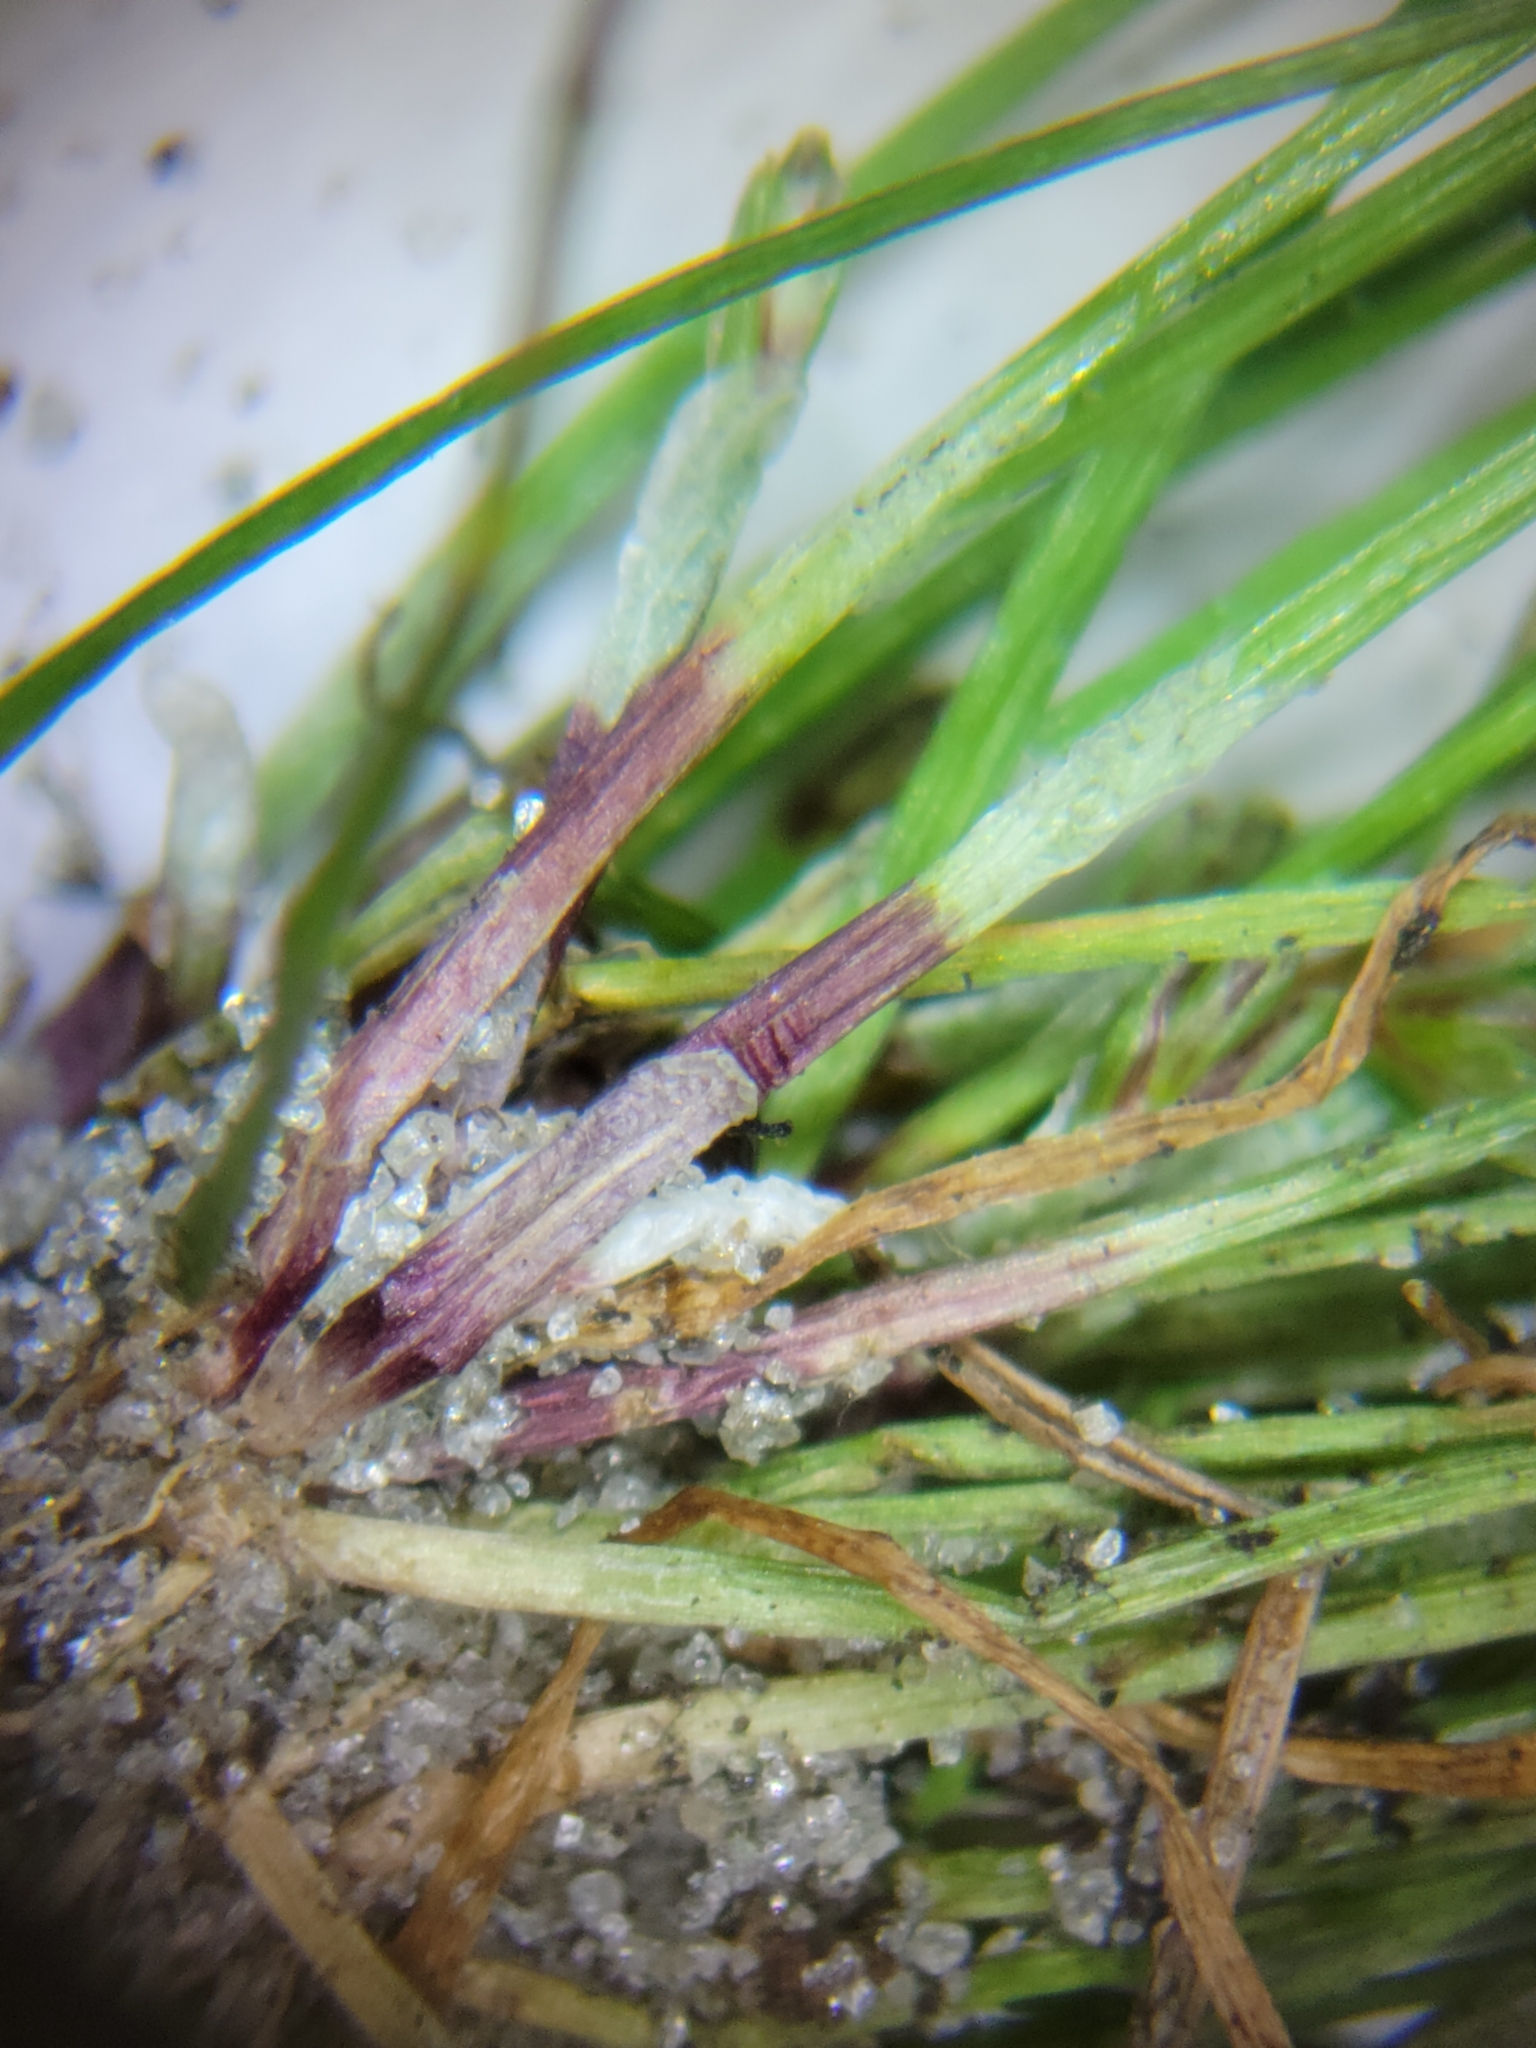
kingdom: Plantae
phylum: Tracheophyta
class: Liliopsida
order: Poales
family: Cyperaceae
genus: Eleocharis
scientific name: Eleocharis flavescens
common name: Yellow spikerush
